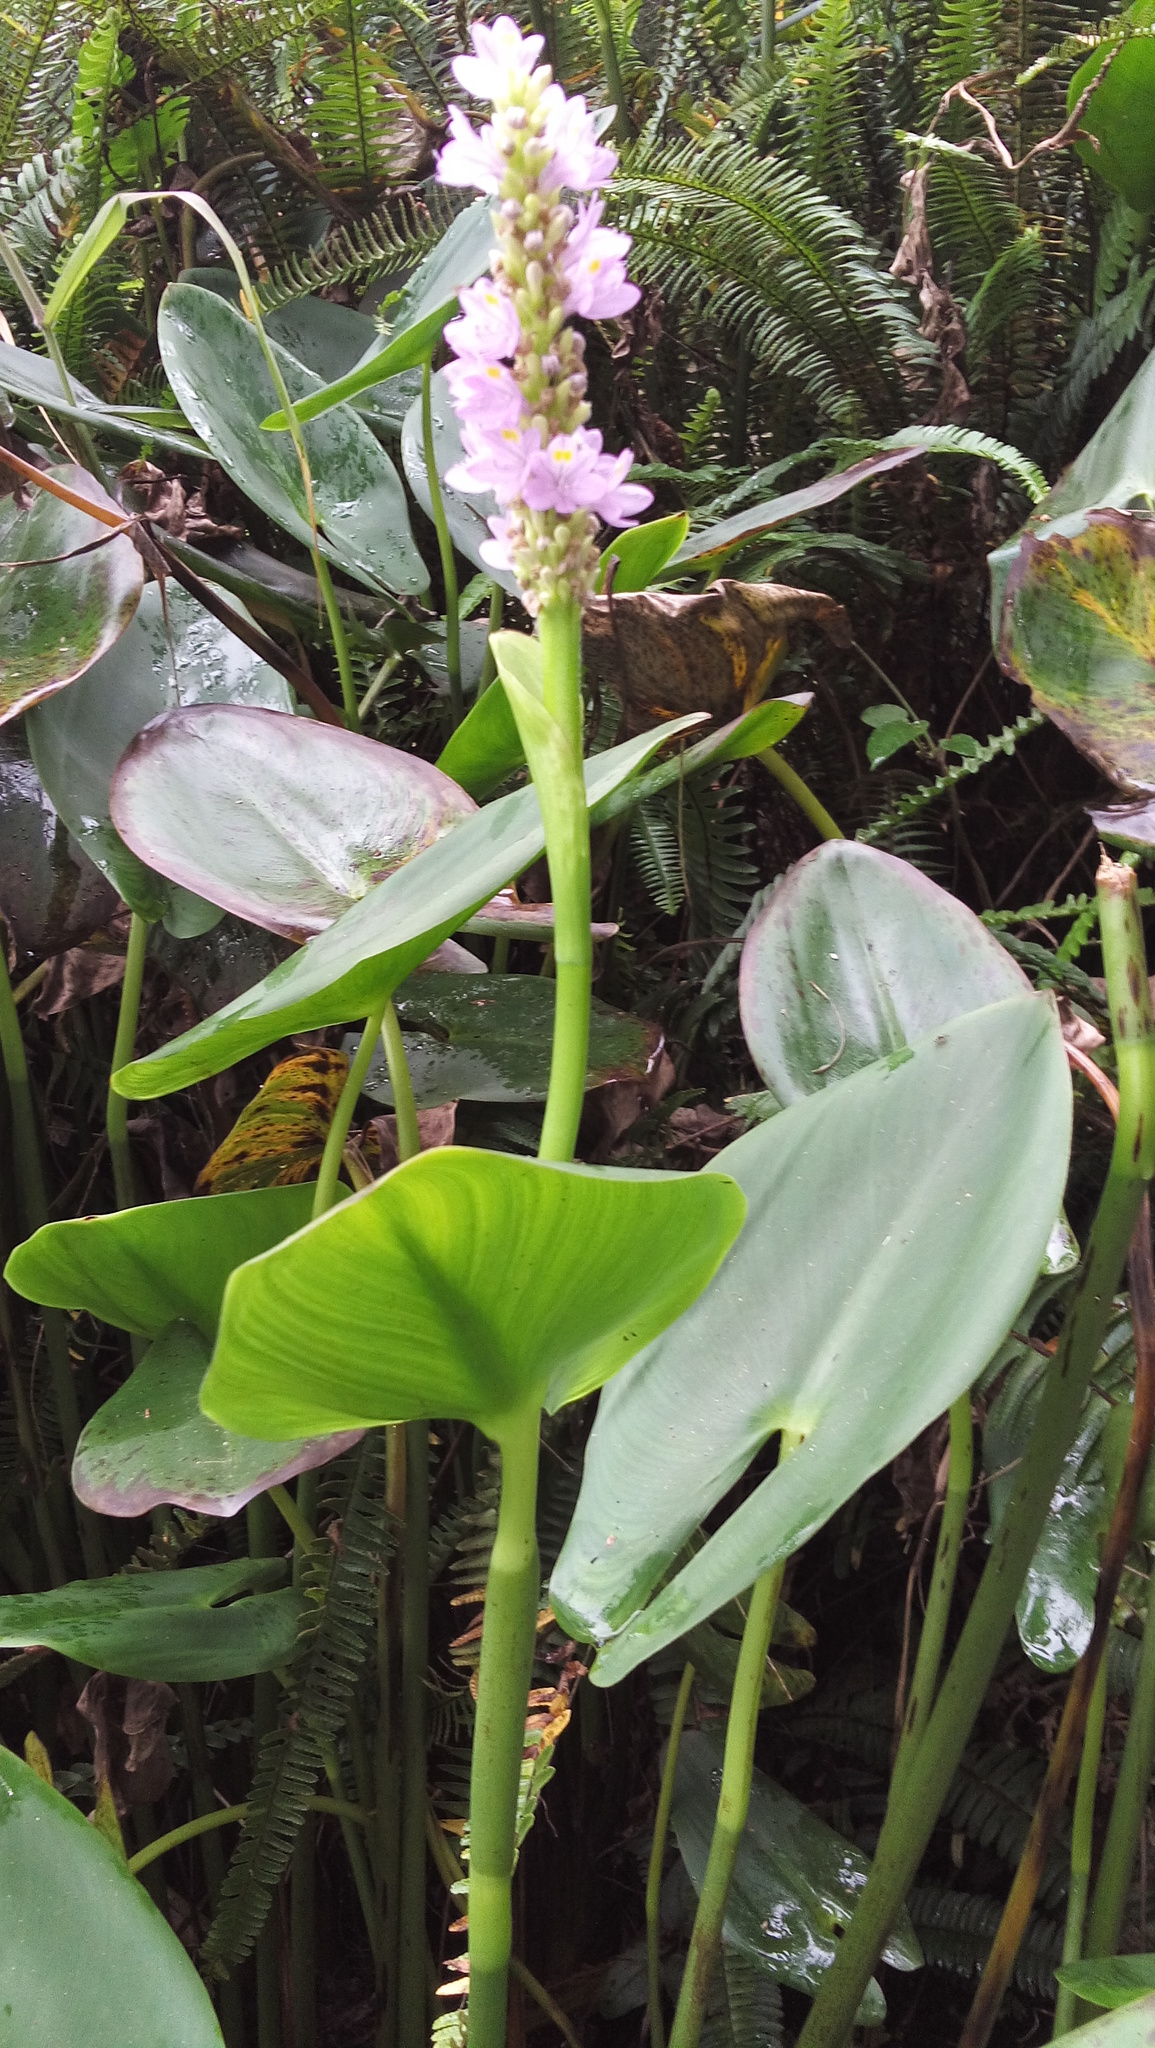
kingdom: Plantae
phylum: Tracheophyta
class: Liliopsida
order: Commelinales
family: Pontederiaceae
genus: Pontederia
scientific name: Pontederia sagittata
